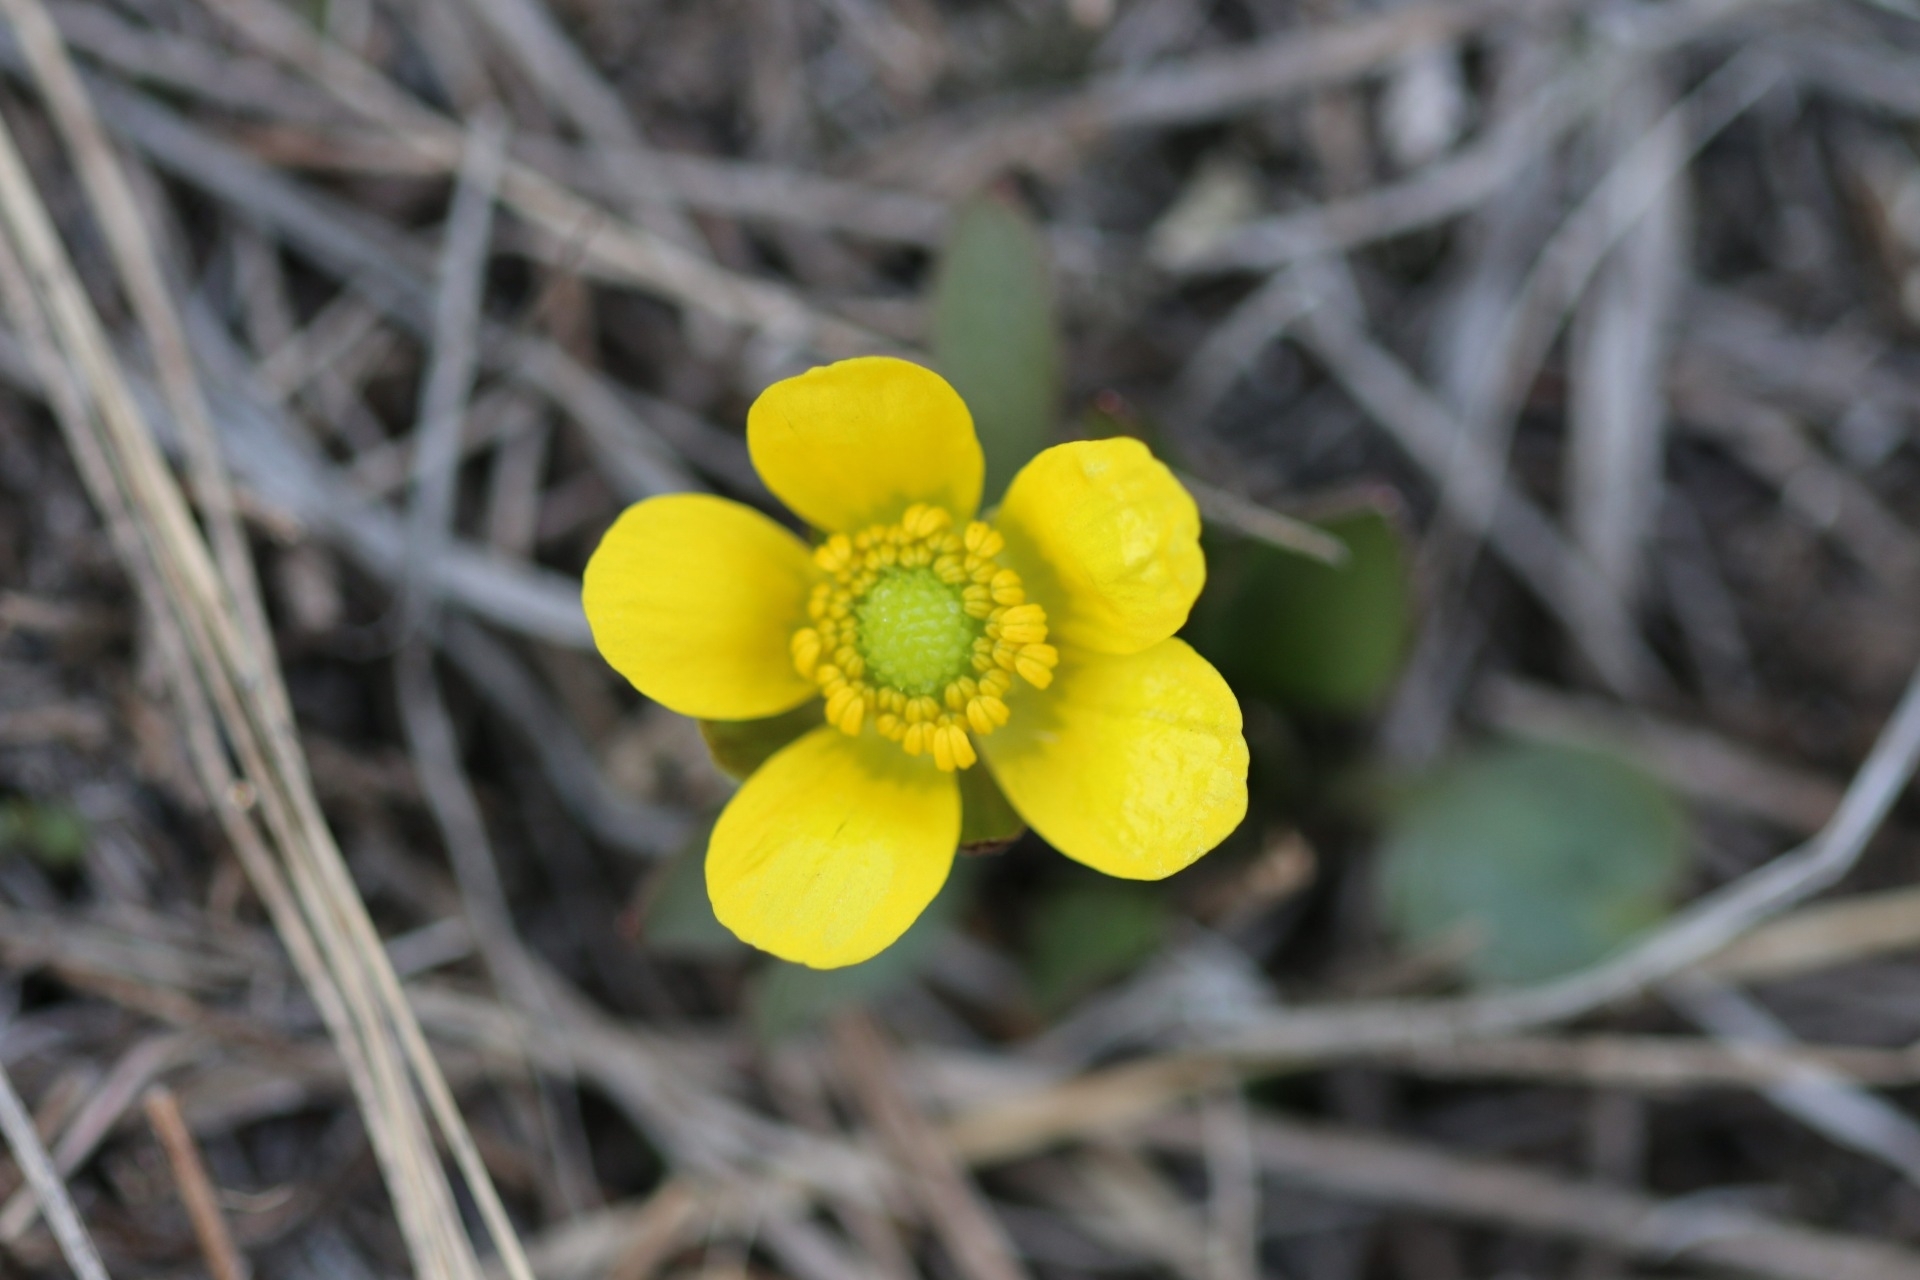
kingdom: Plantae
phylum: Tracheophyta
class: Magnoliopsida
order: Ranunculales
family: Ranunculaceae
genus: Ranunculus
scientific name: Ranunculus glaberrimus
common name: Sagebrush buttercup
